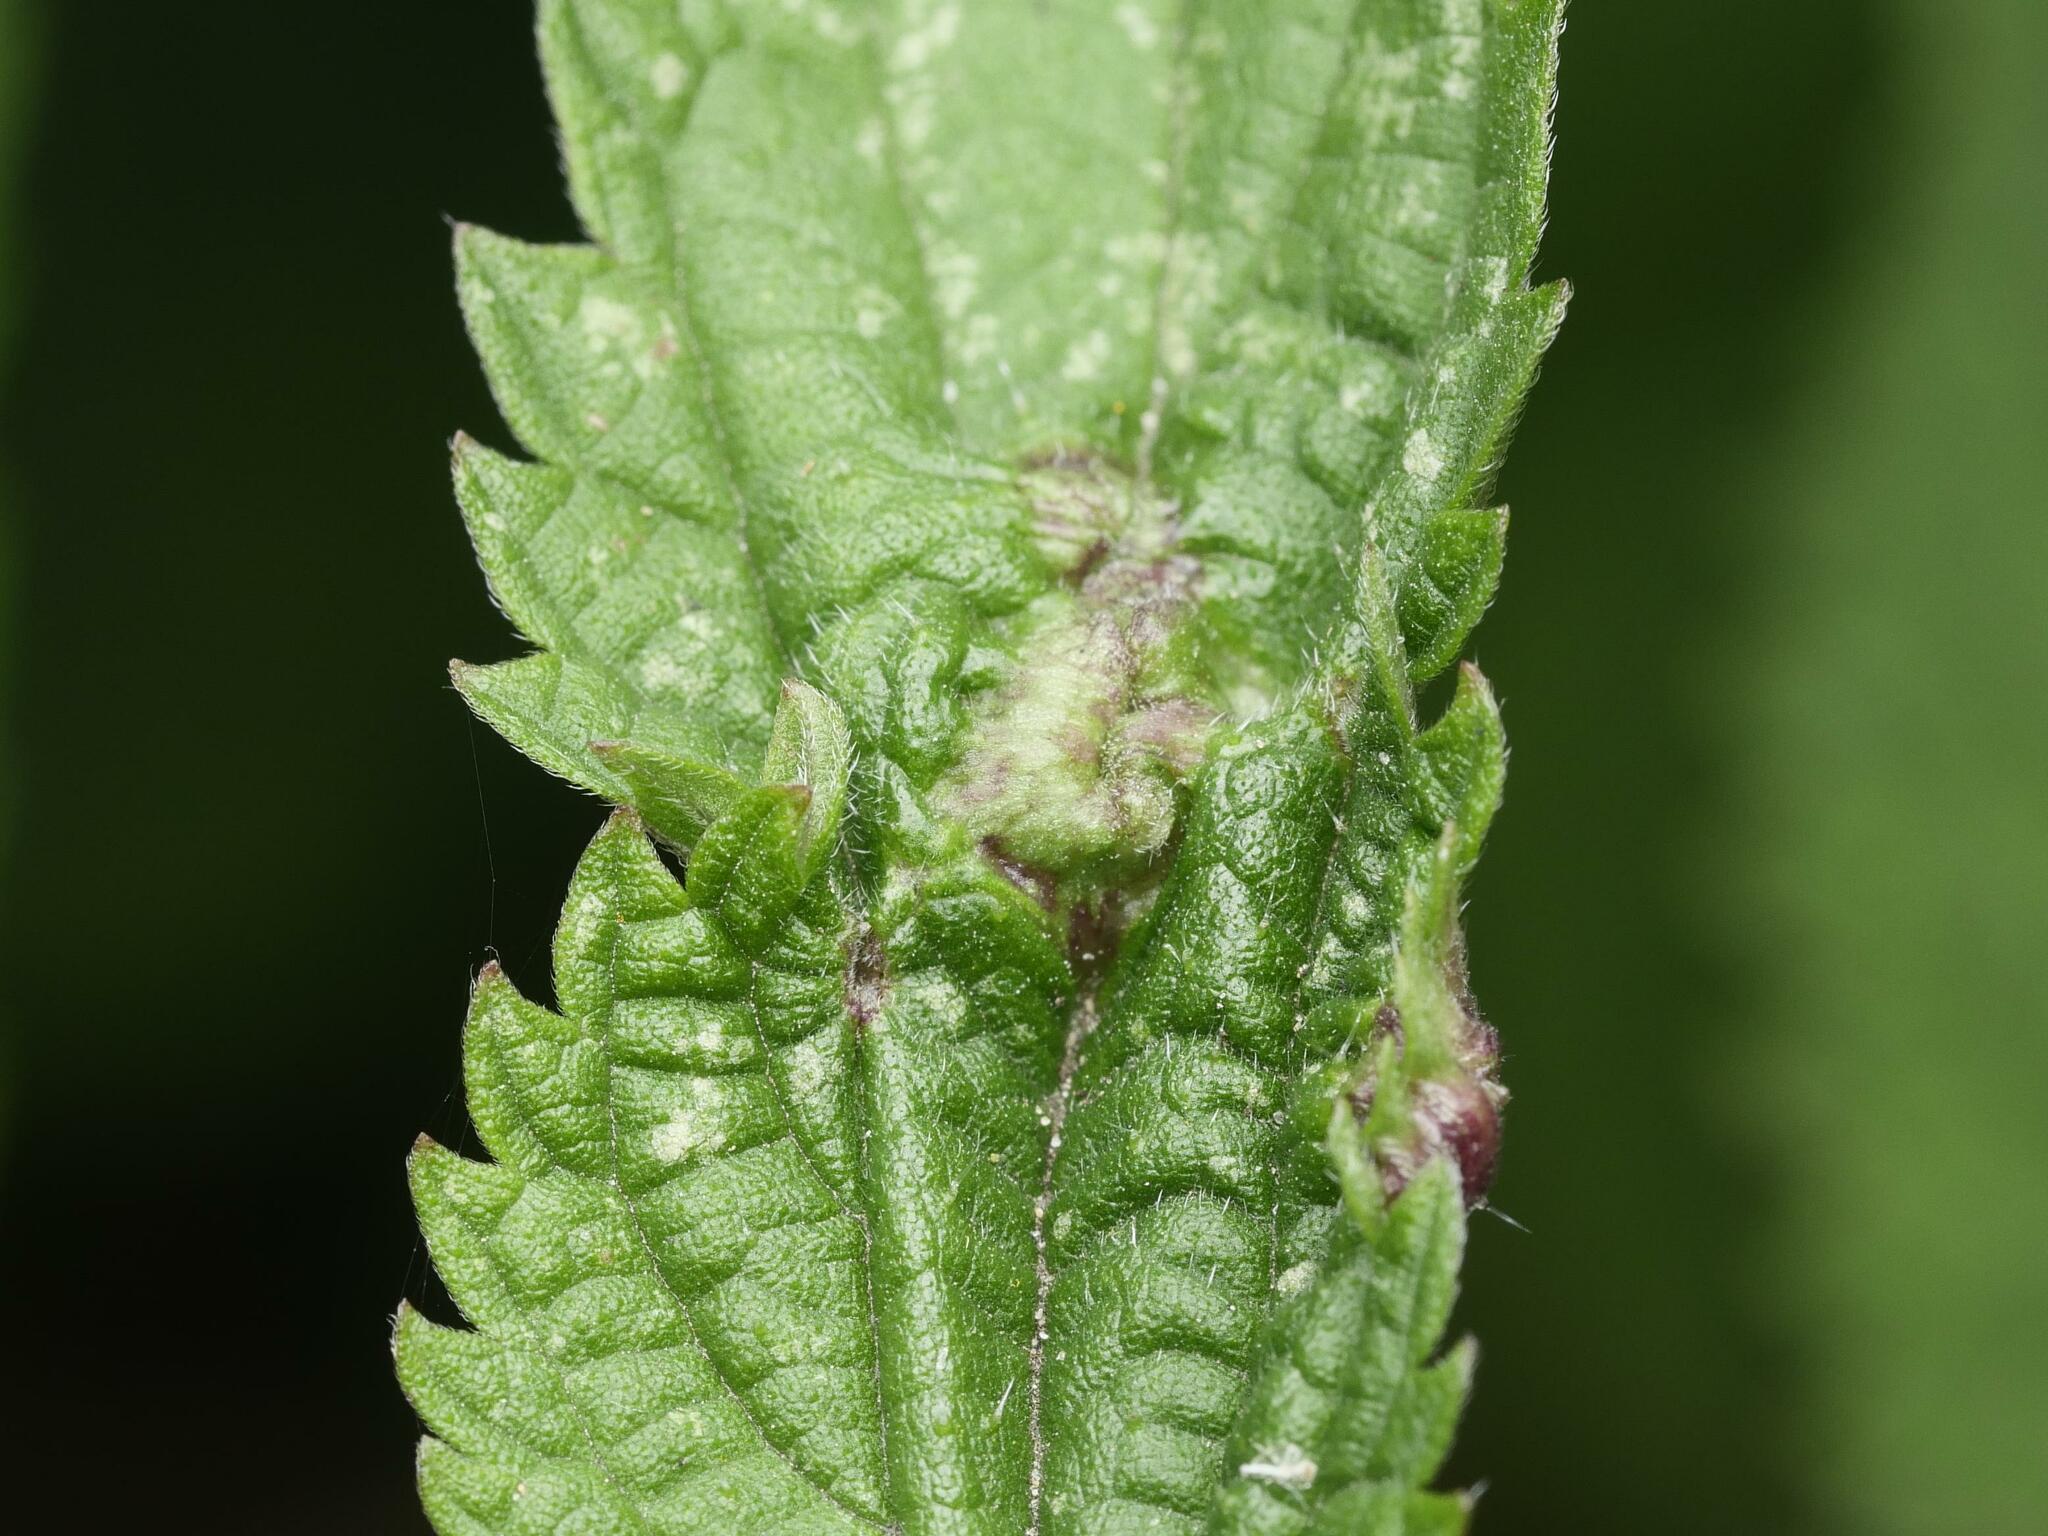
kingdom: Animalia
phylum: Arthropoda
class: Insecta
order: Diptera
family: Cecidomyiidae
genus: Dasineura
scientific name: Dasineura urticae
